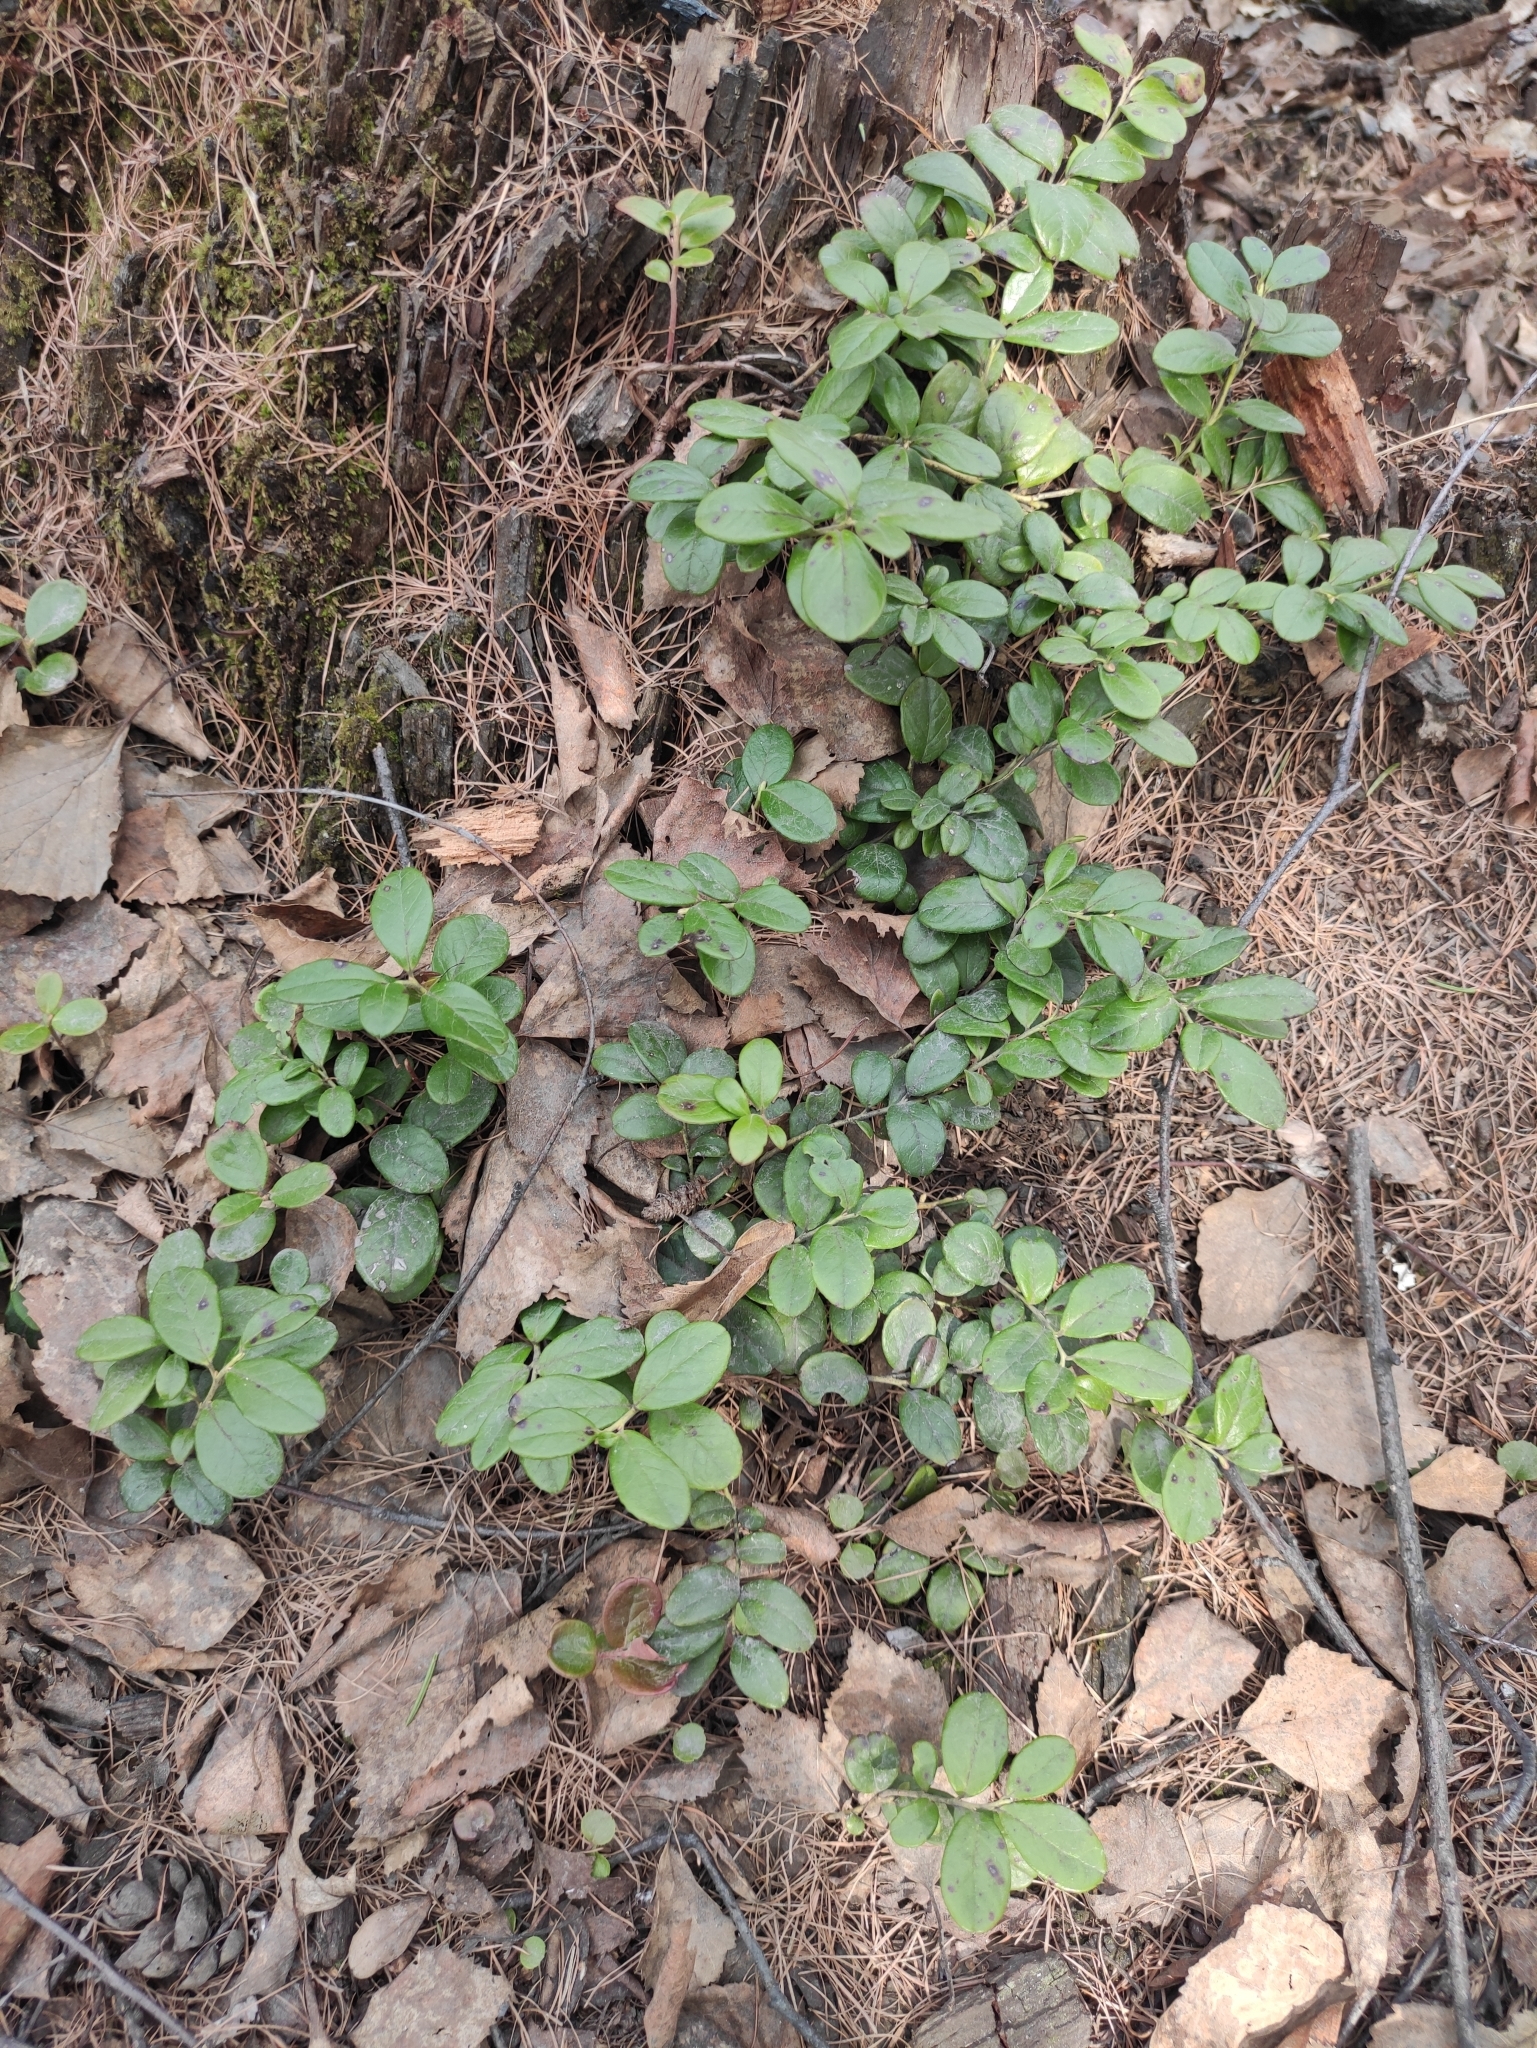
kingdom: Plantae
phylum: Tracheophyta
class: Magnoliopsida
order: Ericales
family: Ericaceae
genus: Vaccinium
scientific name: Vaccinium vitis-idaea
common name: Cowberry
